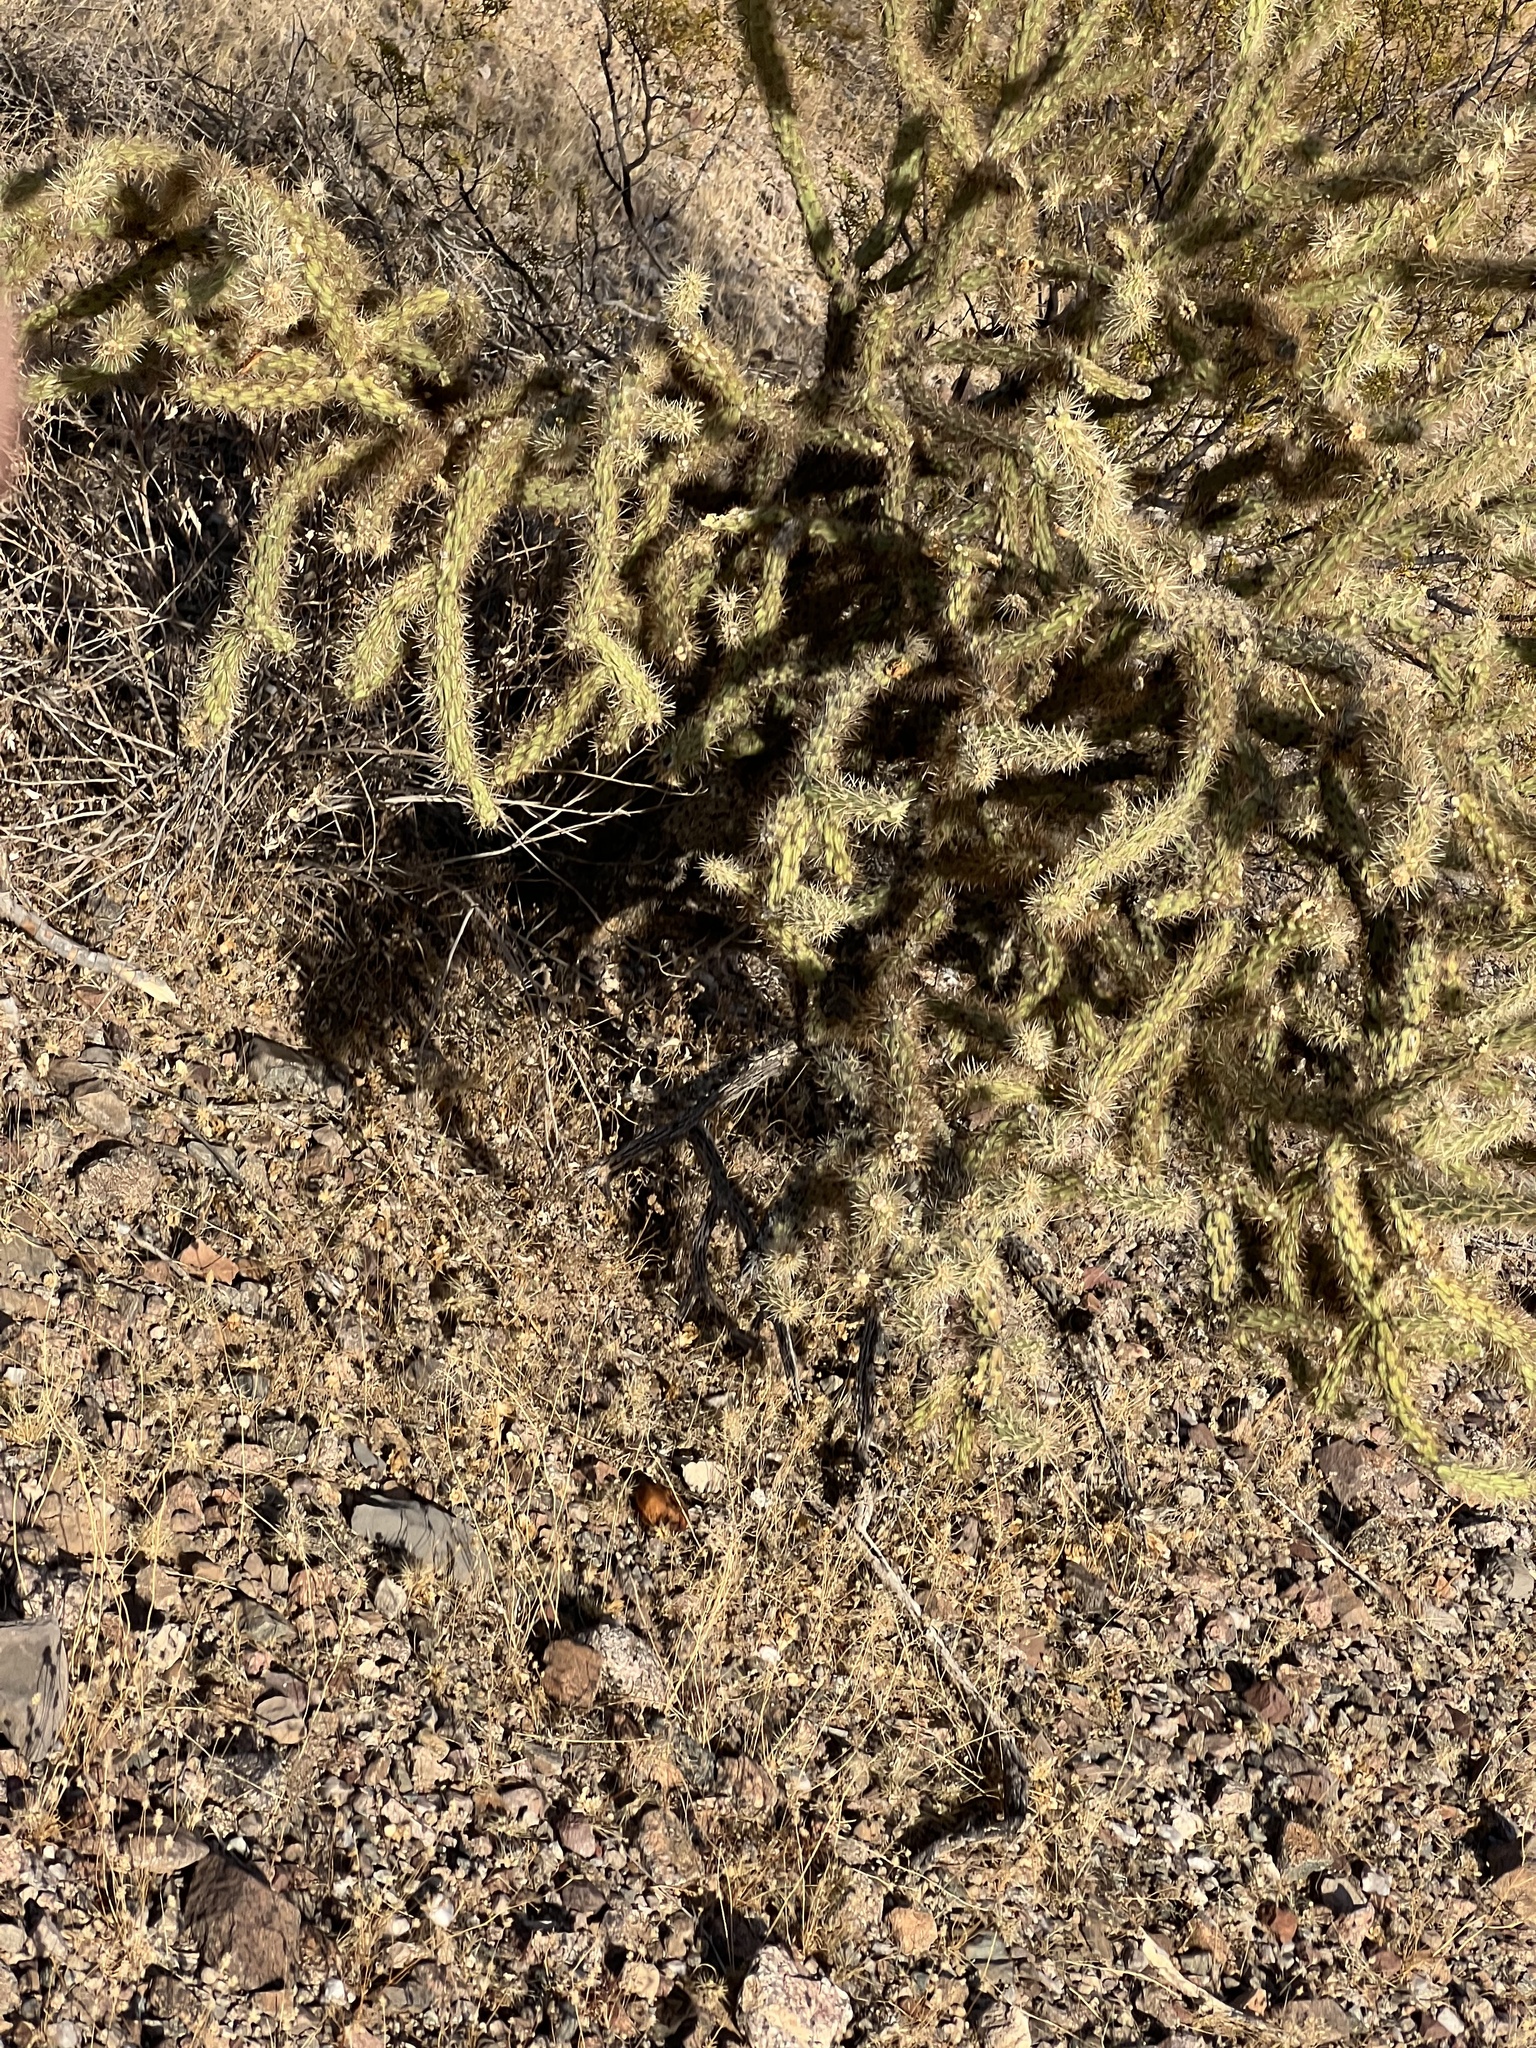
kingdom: Plantae
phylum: Tracheophyta
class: Magnoliopsida
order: Caryophyllales
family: Cactaceae
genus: Cylindropuntia
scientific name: Cylindropuntia acanthocarpa
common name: Buckhorn cholla
